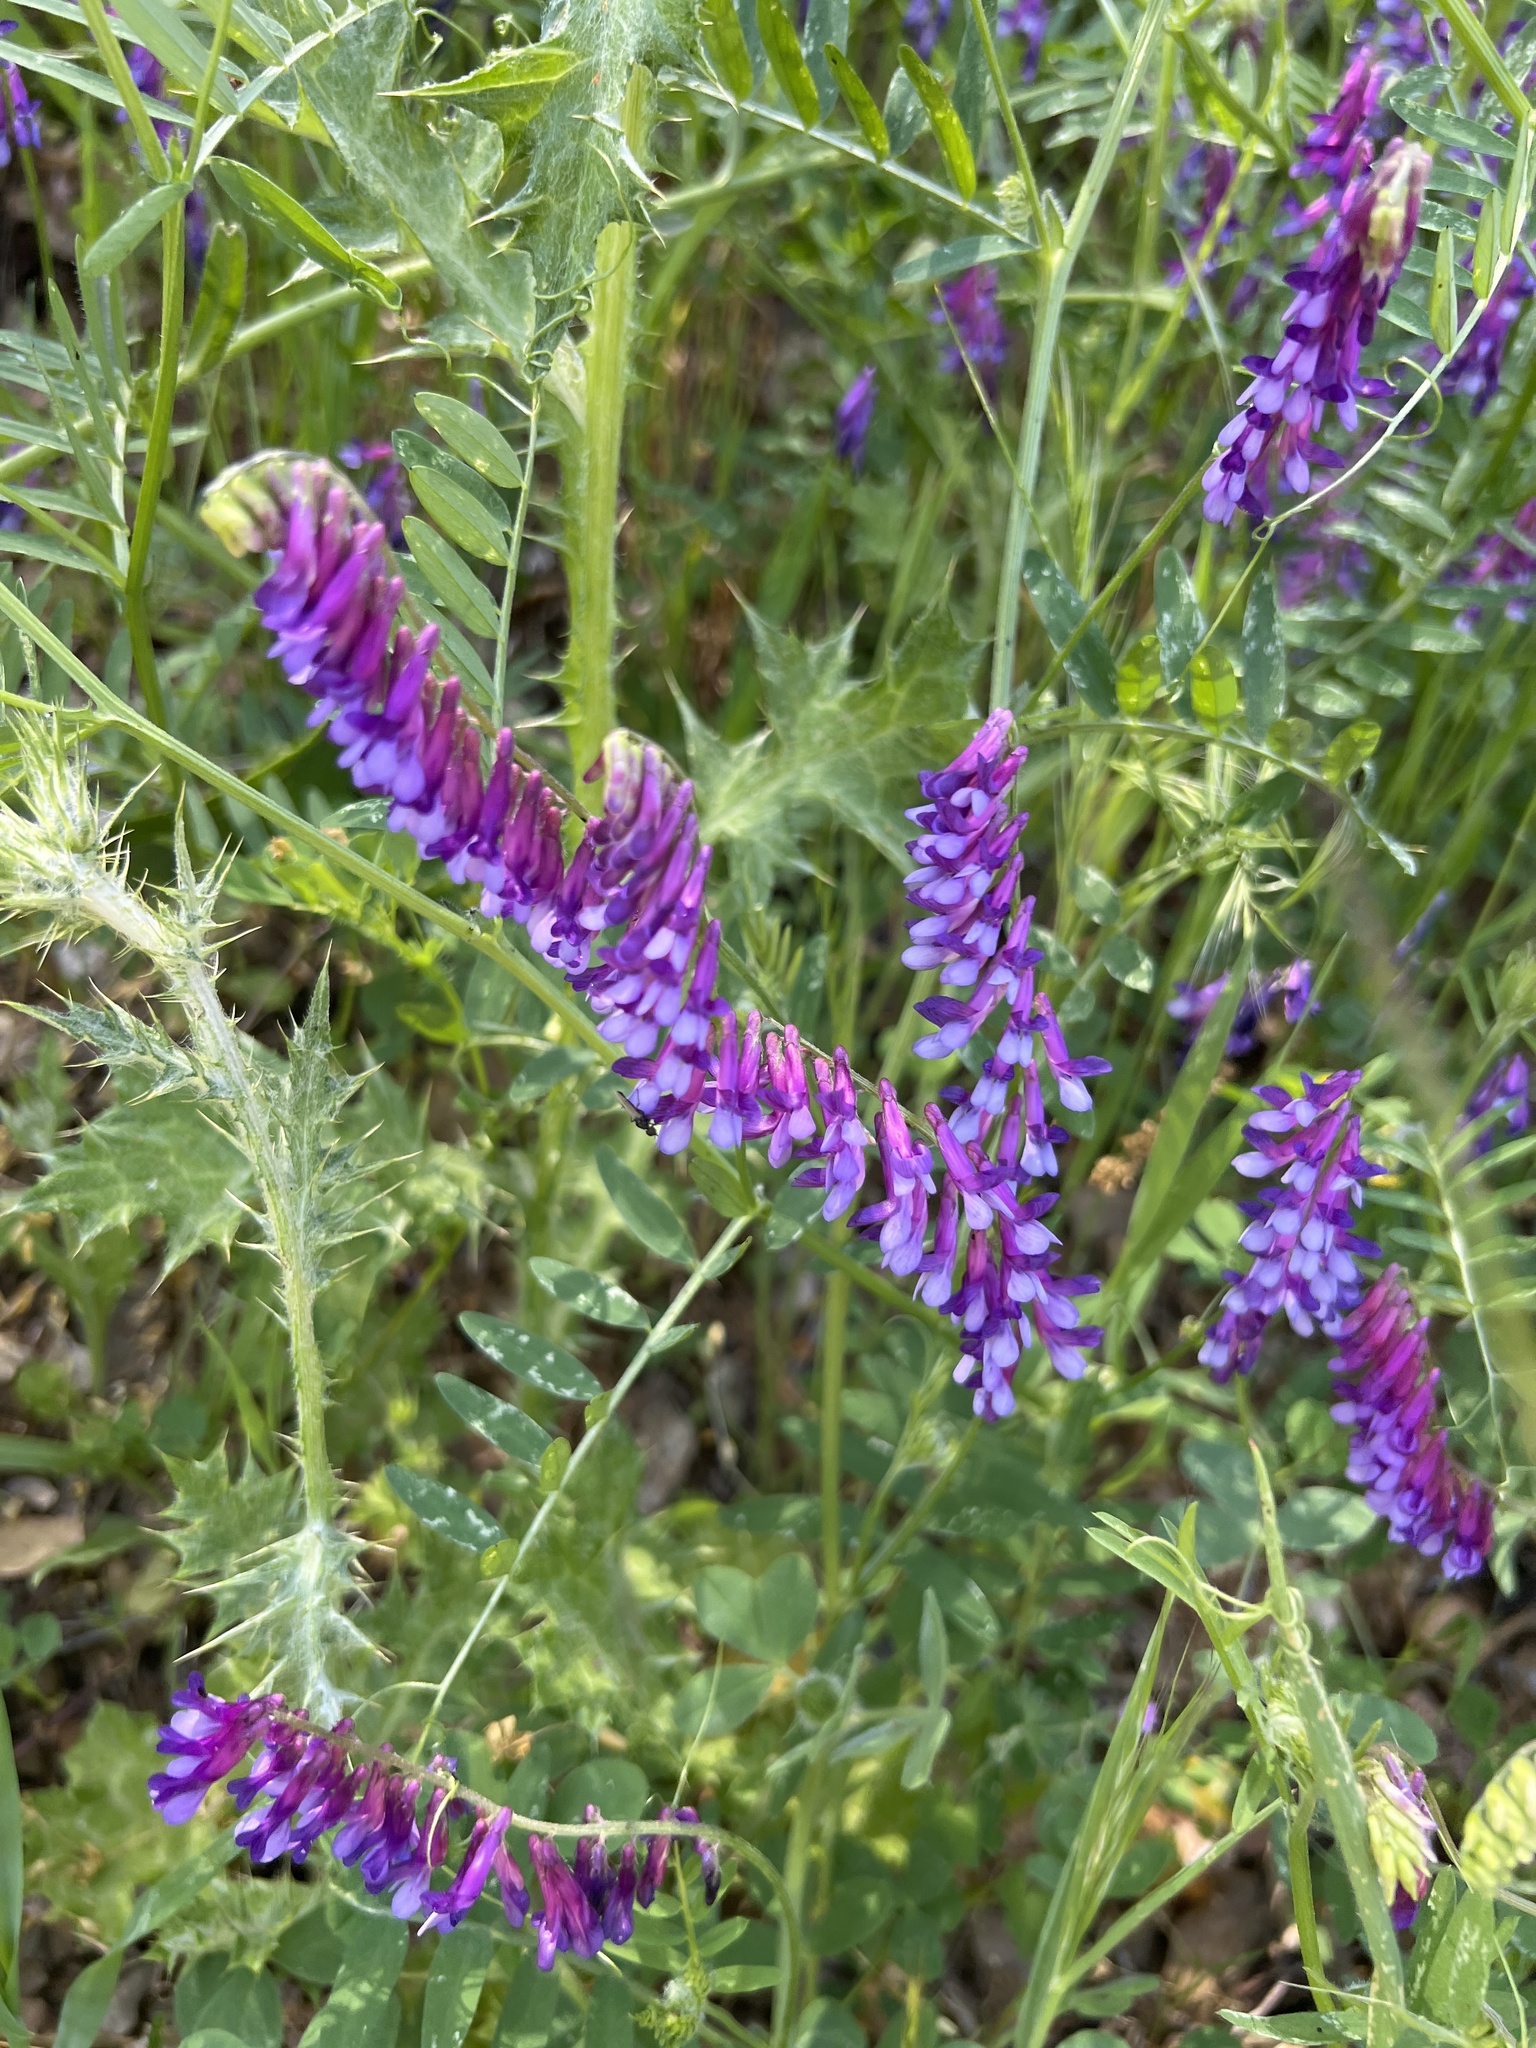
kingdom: Plantae
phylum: Tracheophyta
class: Magnoliopsida
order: Fabales
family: Fabaceae
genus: Vicia
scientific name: Vicia villosa
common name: Fodder vetch
